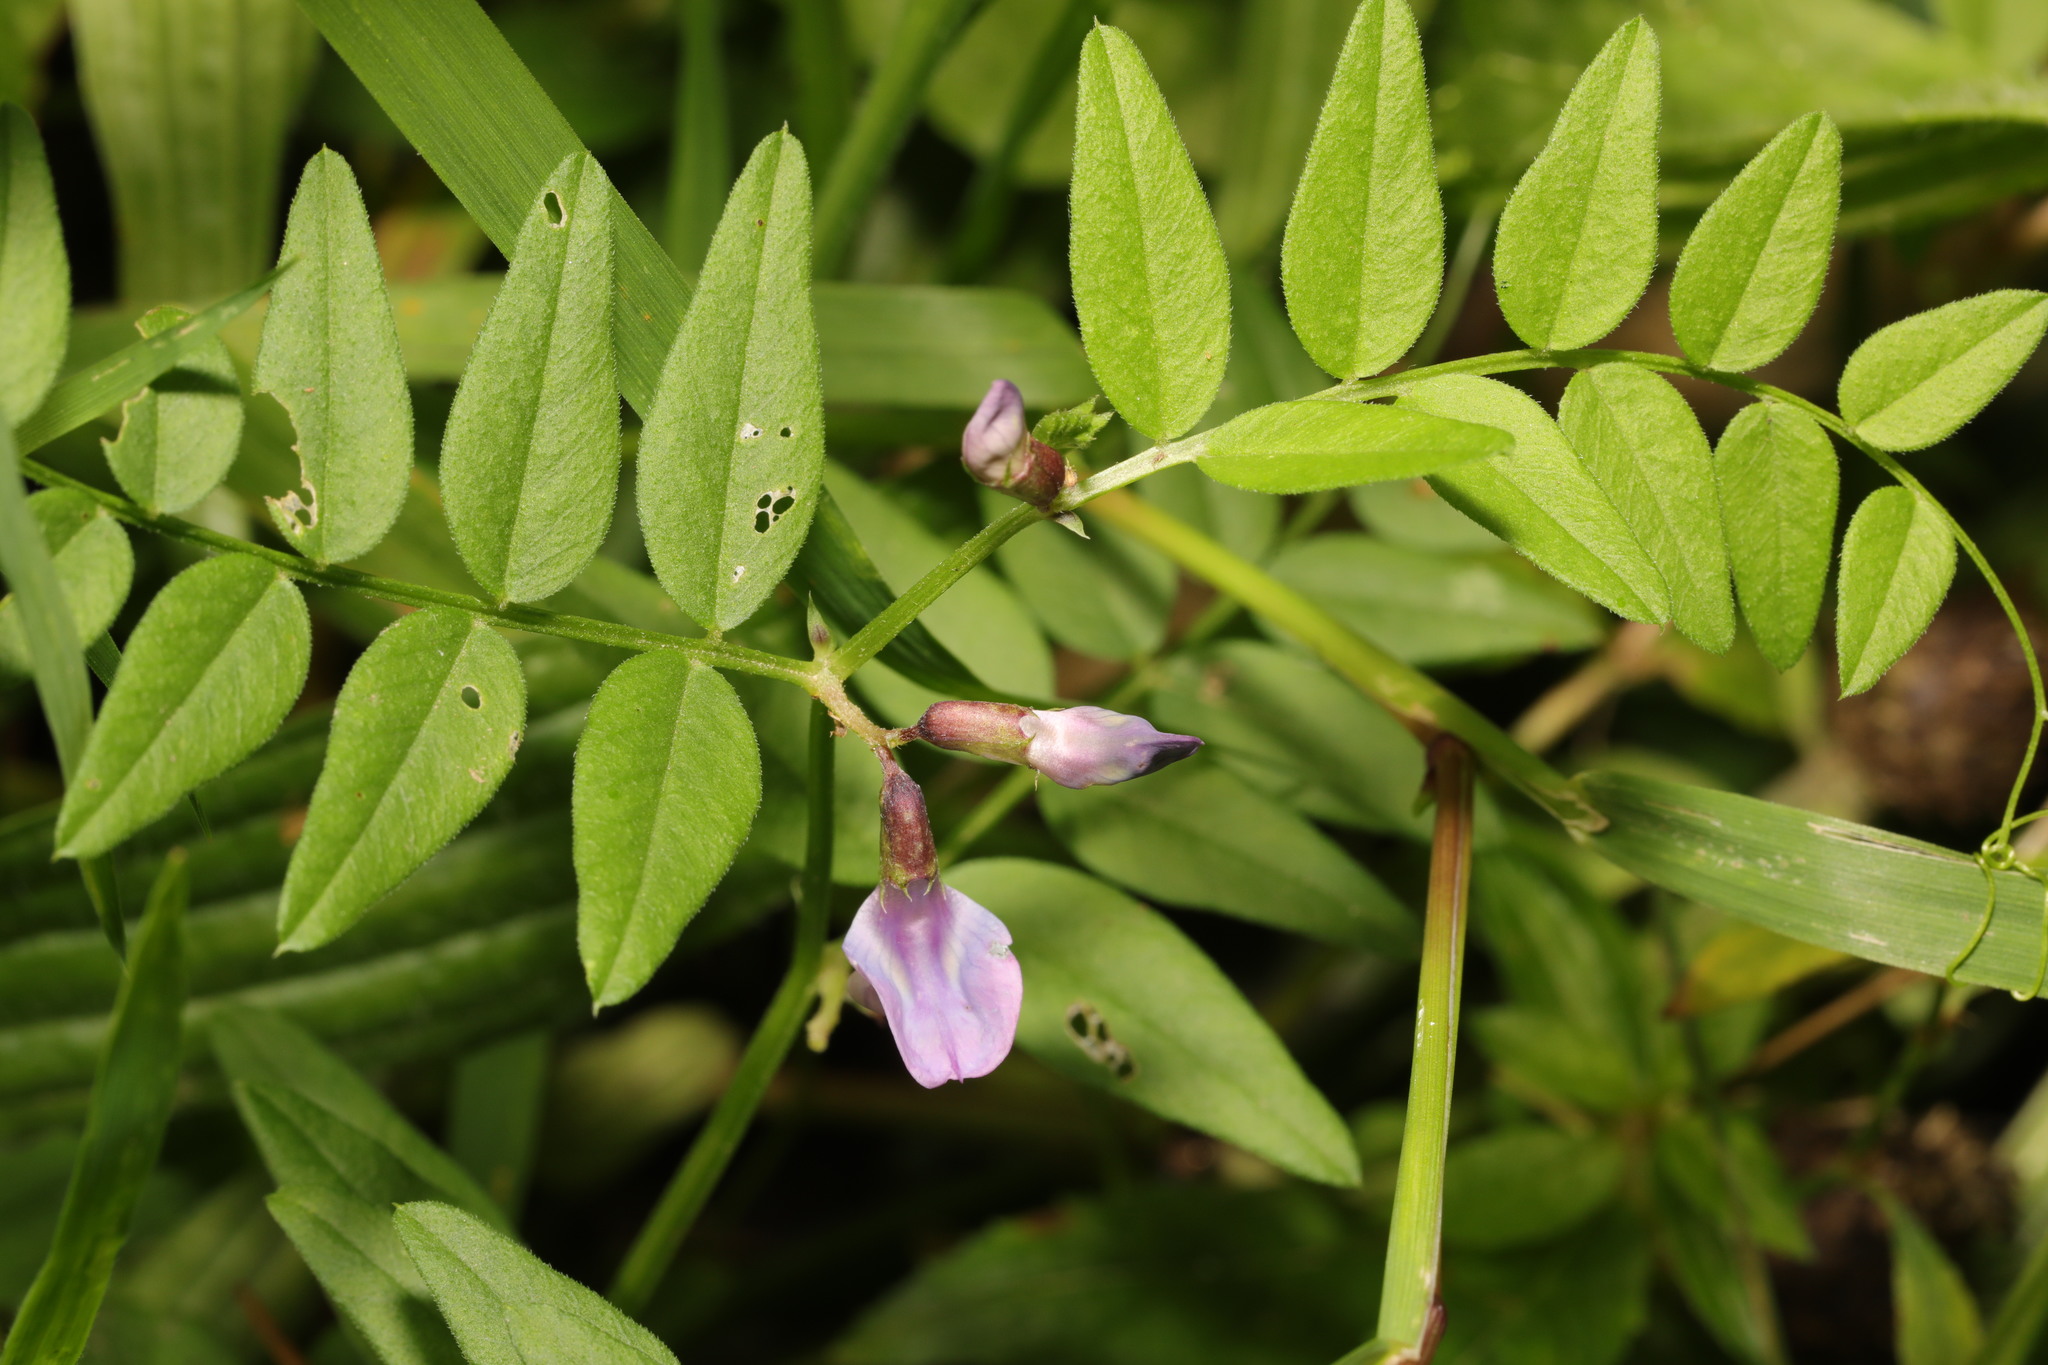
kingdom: Plantae
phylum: Tracheophyta
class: Magnoliopsida
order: Fabales
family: Fabaceae
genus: Vicia
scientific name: Vicia sepium
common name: Bush vetch
